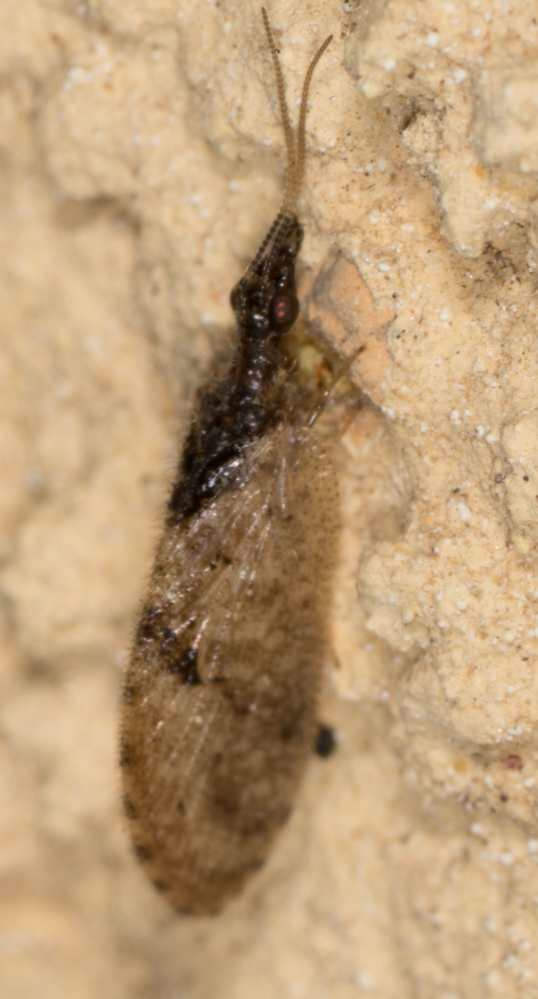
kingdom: Animalia
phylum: Arthropoda
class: Insecta
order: Neuroptera
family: Hemerobiidae
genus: Sympherobius
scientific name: Sympherobius barberi
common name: Brown lacewing
